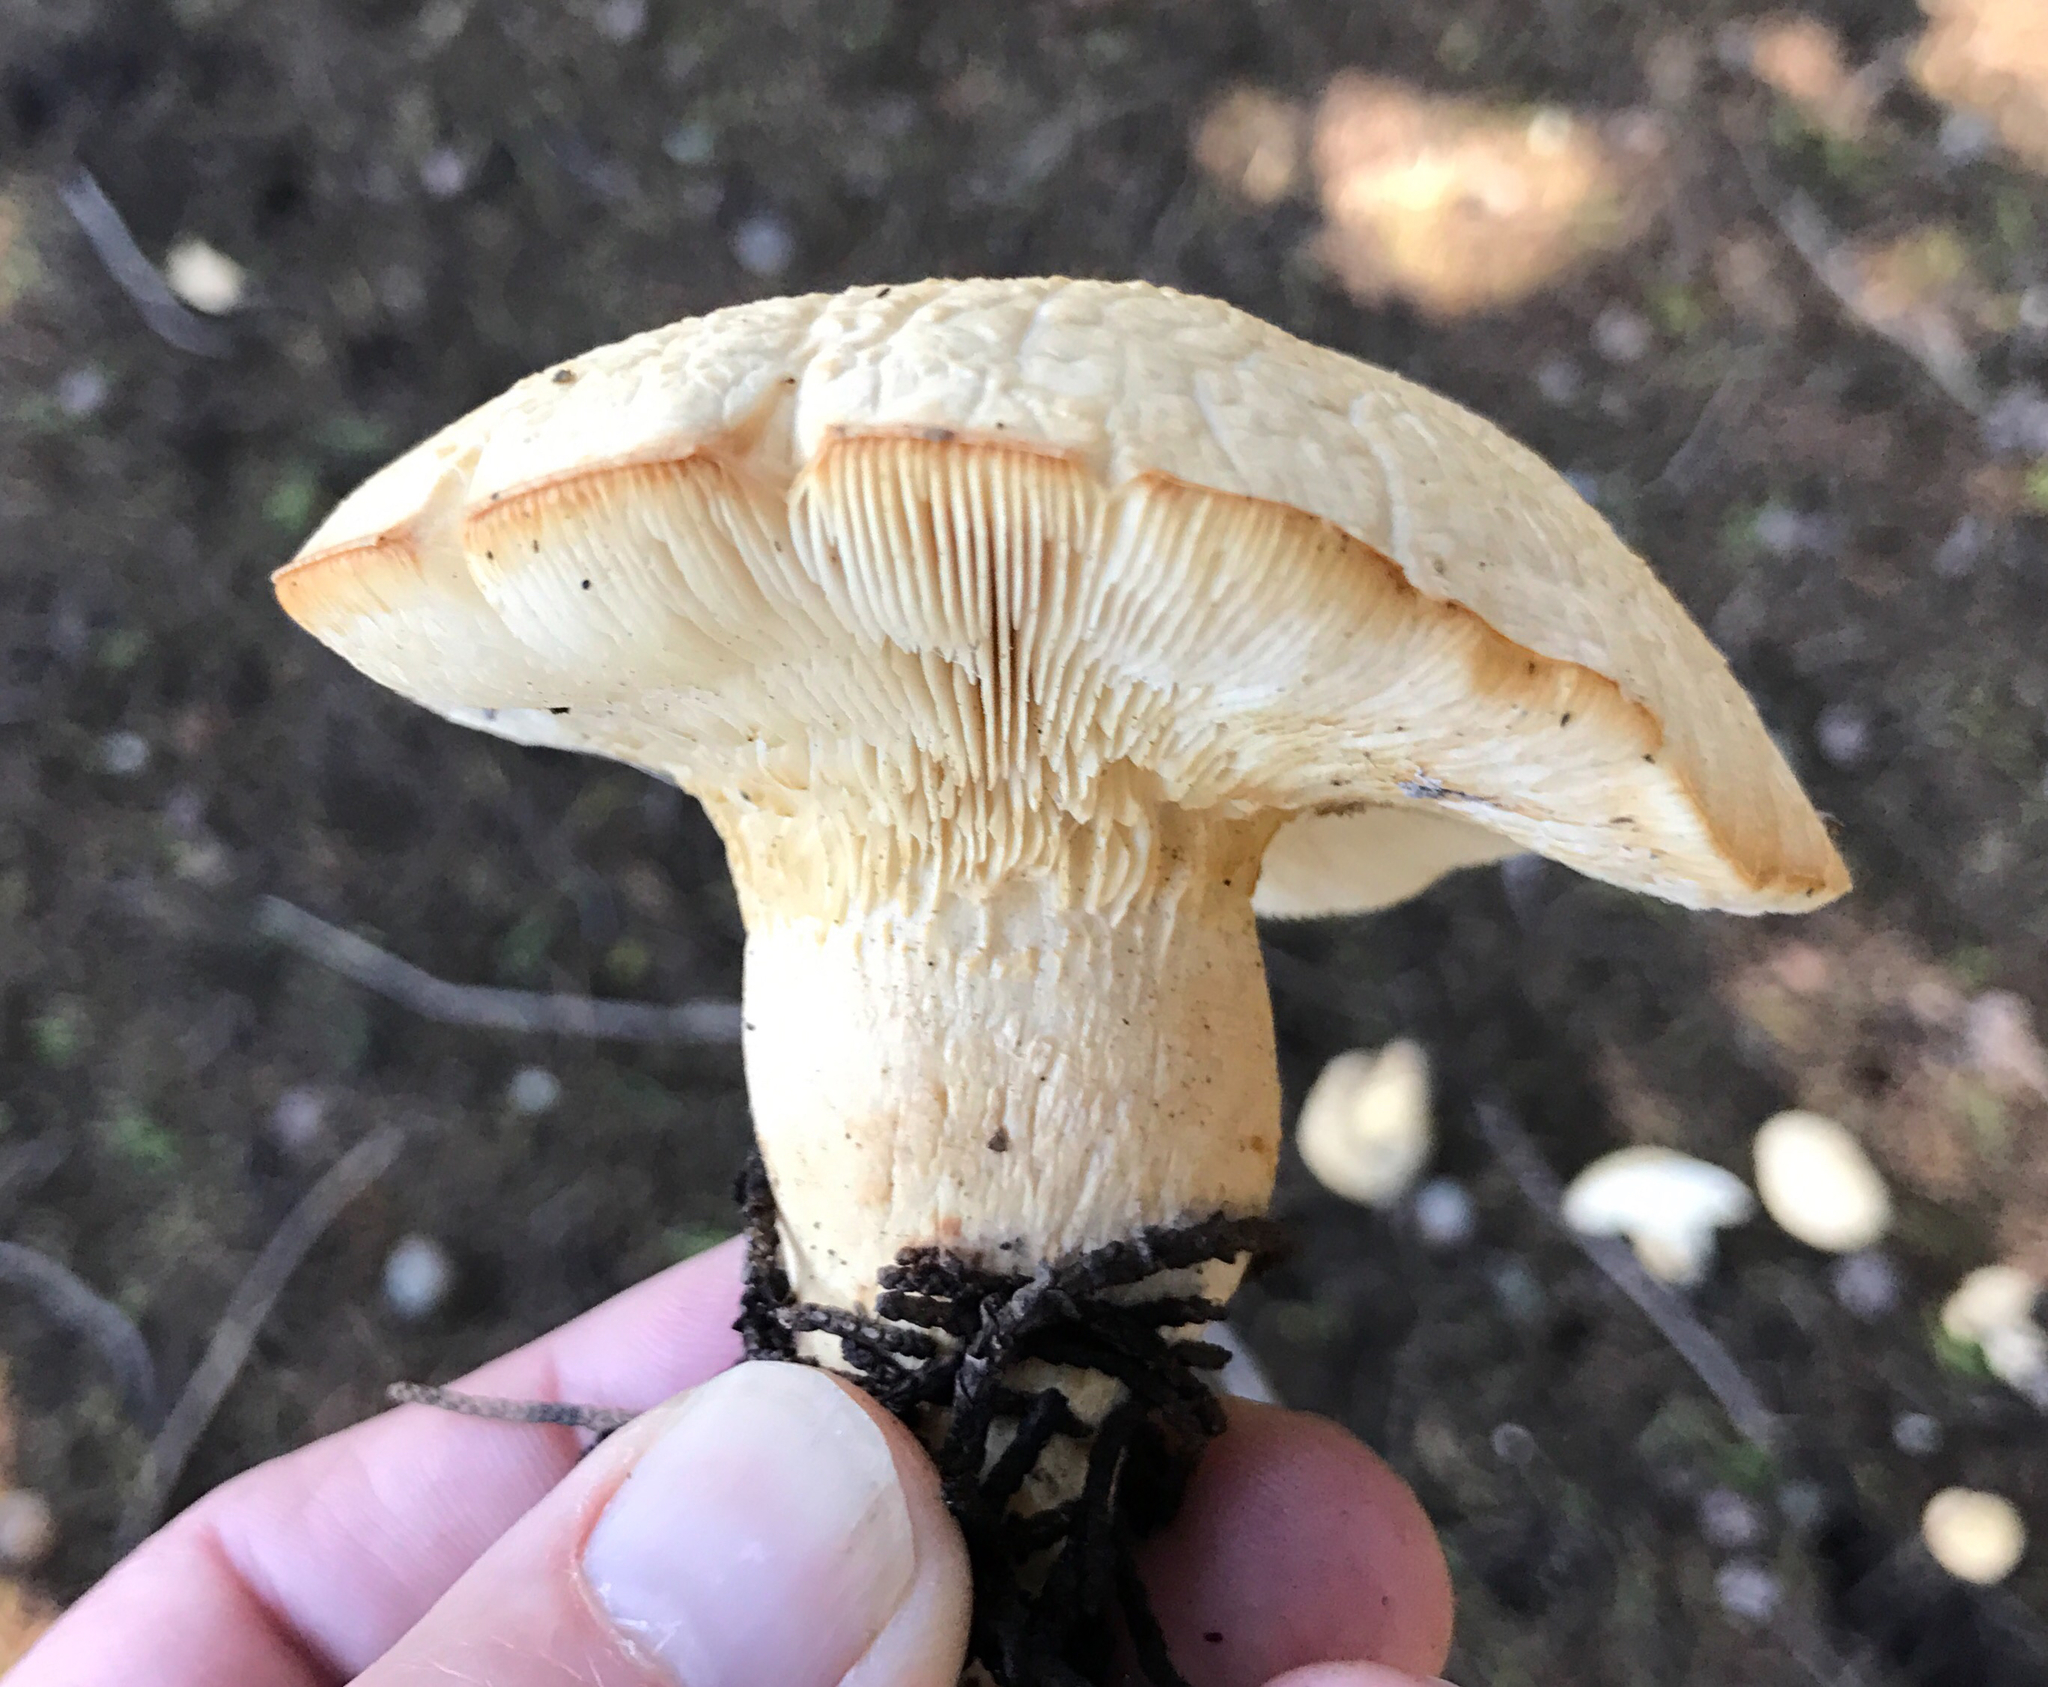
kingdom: Fungi
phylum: Basidiomycota
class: Agaricomycetes
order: Agaricales
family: Tricholomataceae
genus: Leucopaxillus
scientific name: Leucopaxillus albissimus
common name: Large white leucopax
